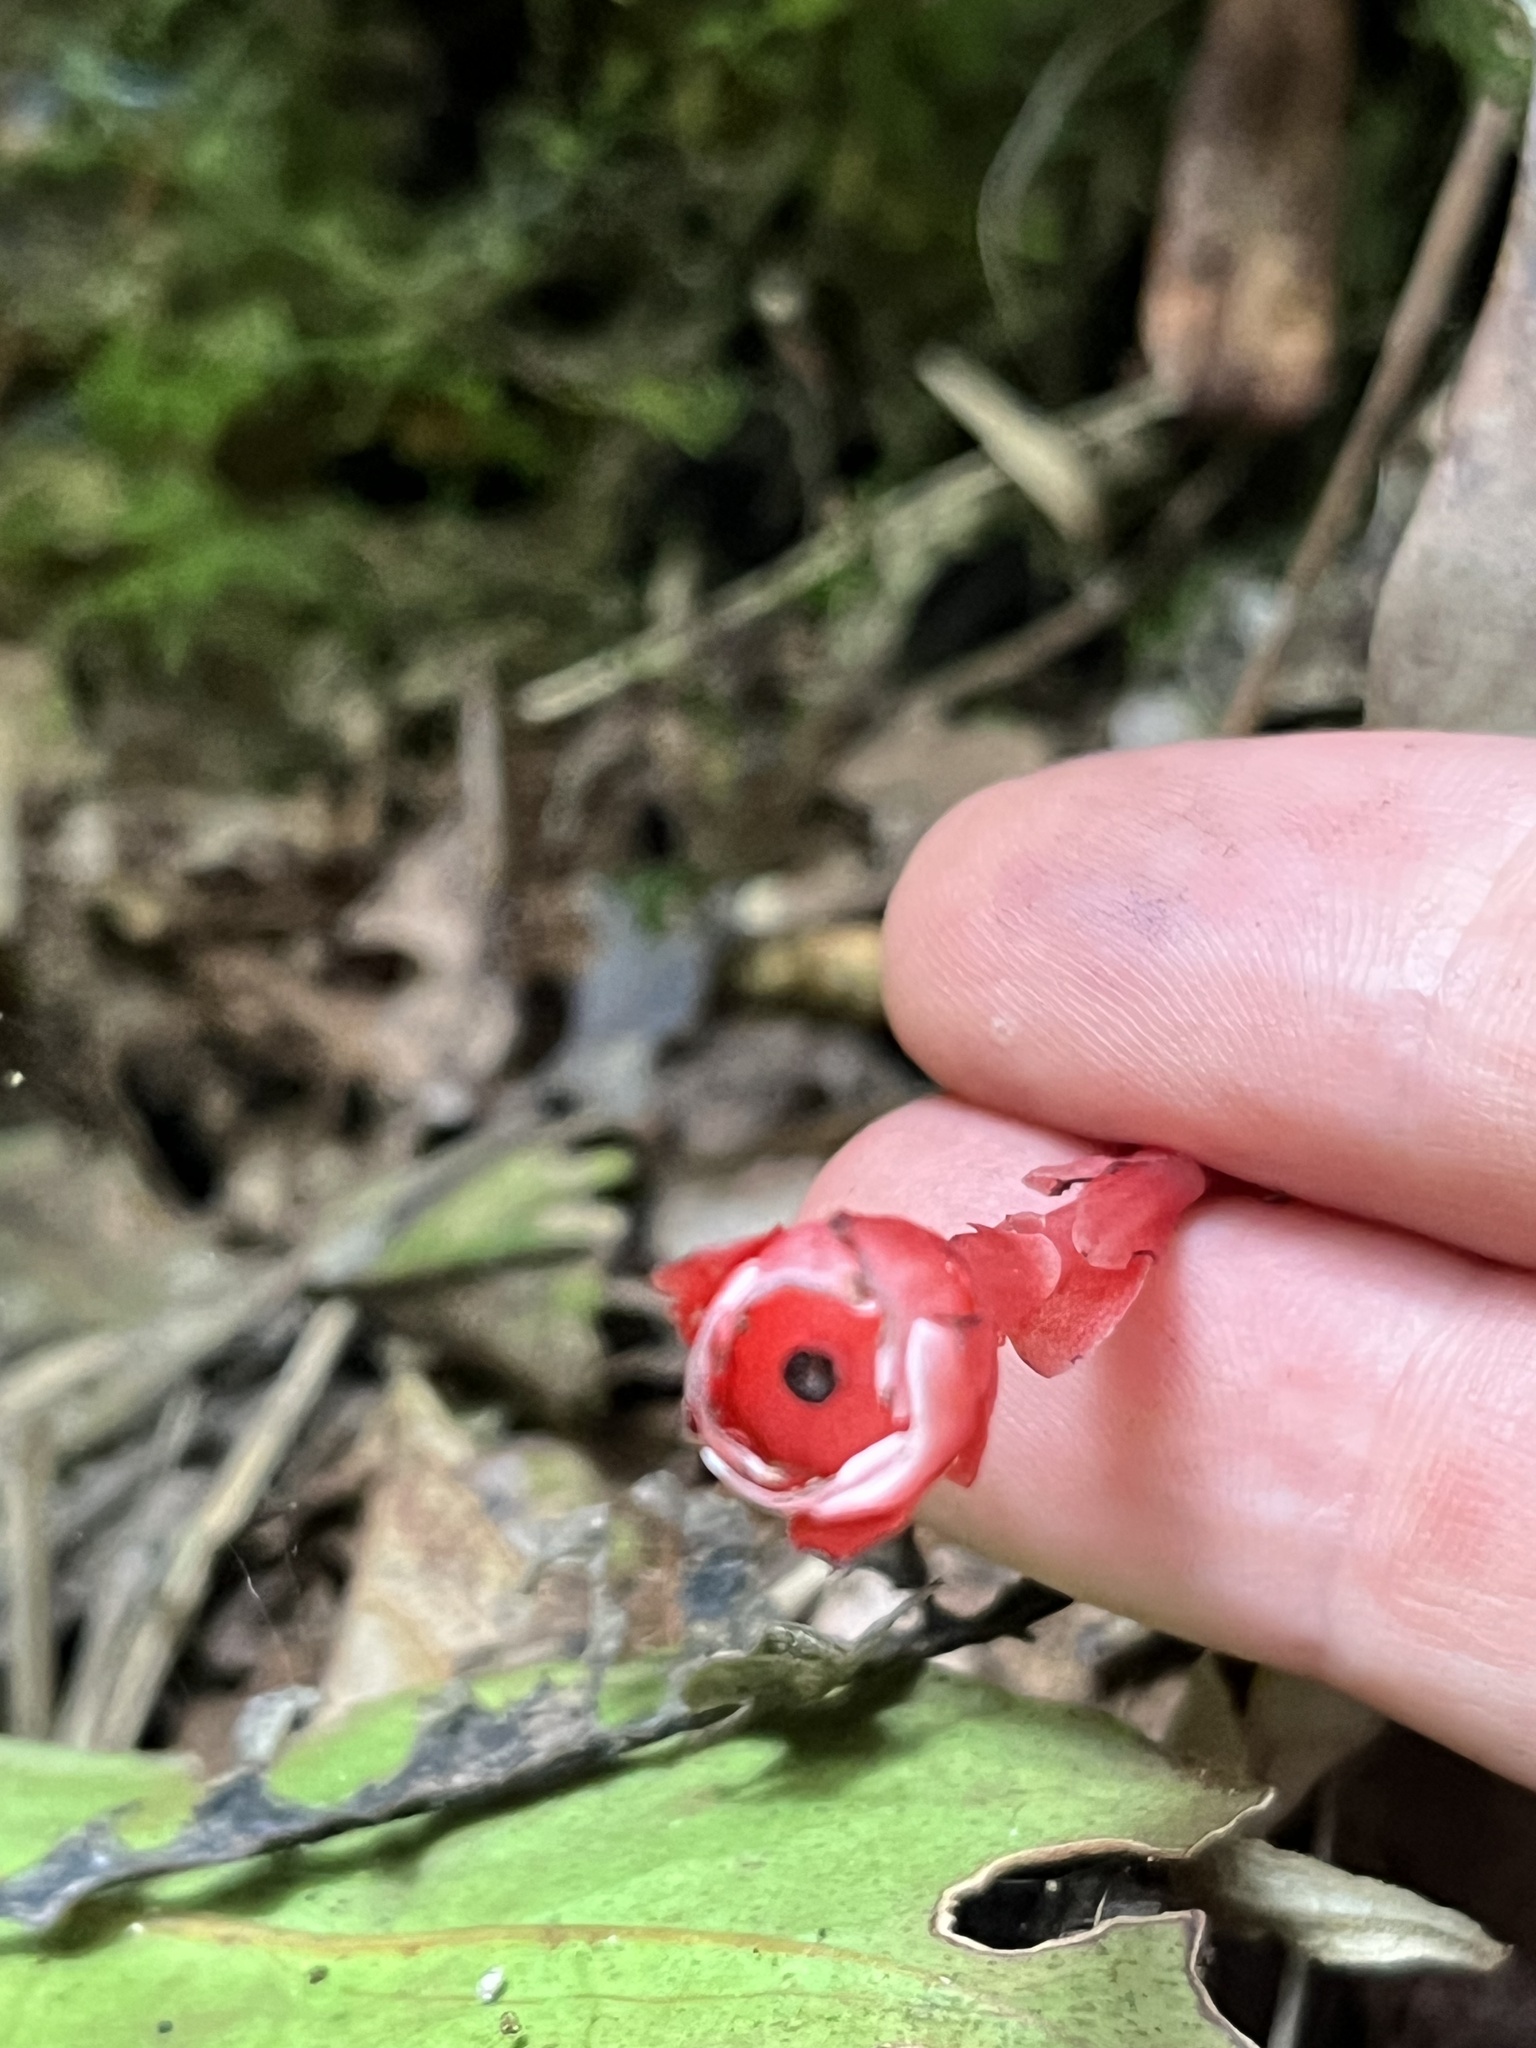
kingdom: Plantae
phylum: Tracheophyta
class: Magnoliopsida
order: Ericales
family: Ericaceae
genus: Monotropa
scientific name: Monotropa coccinea
